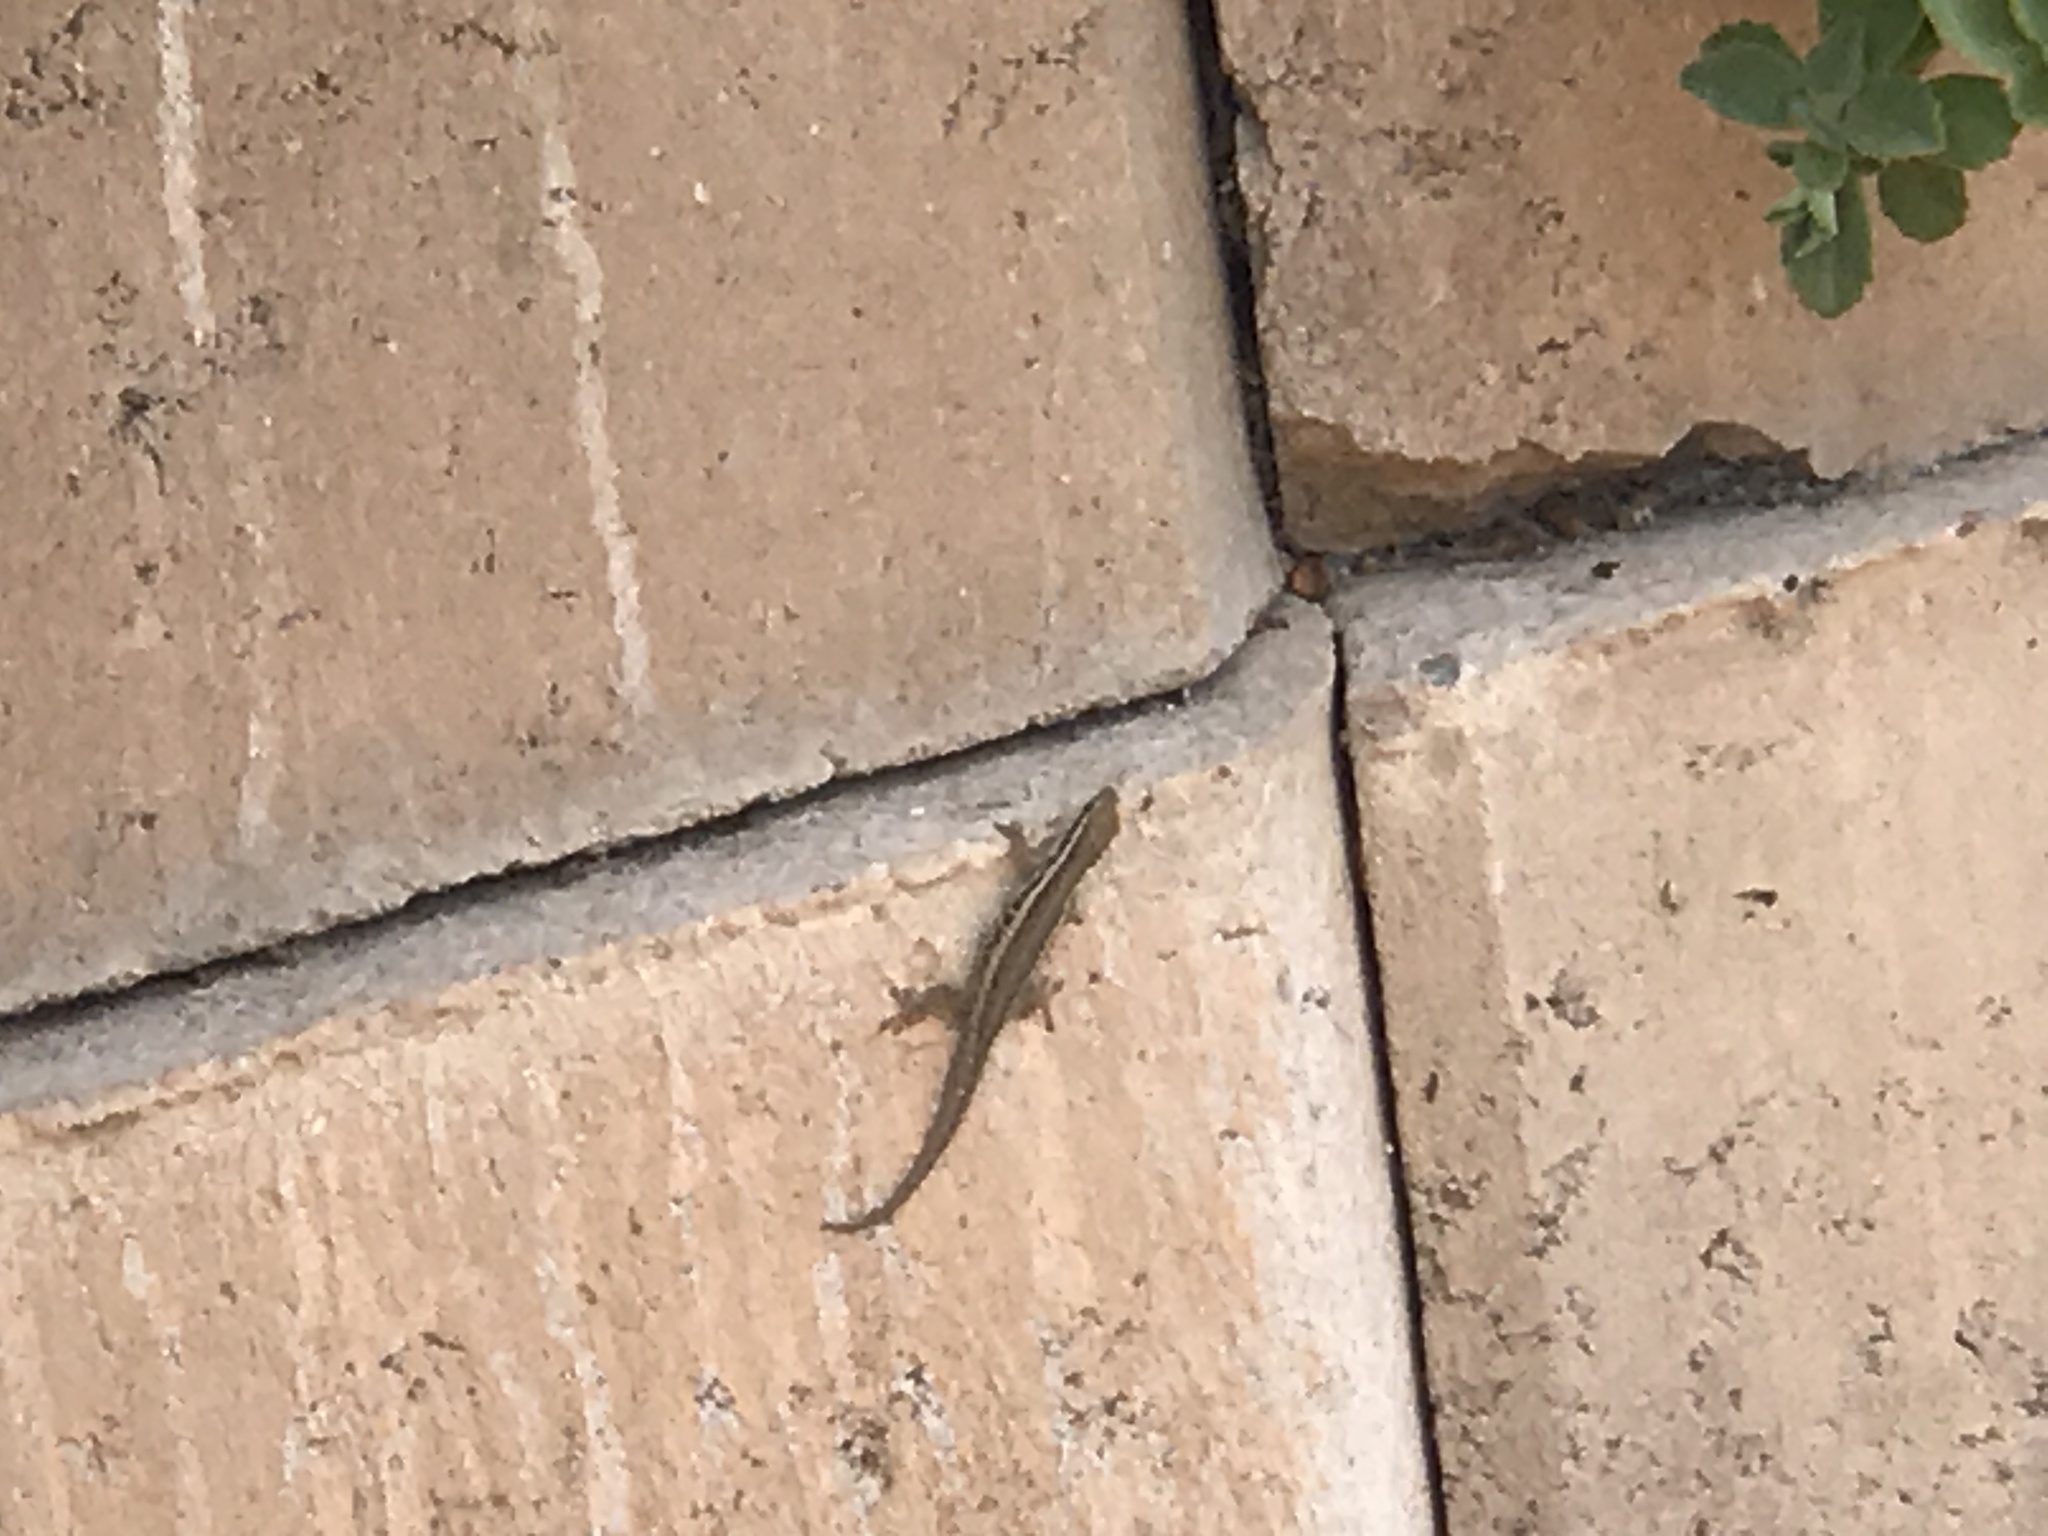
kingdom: Animalia
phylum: Chordata
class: Squamata
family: Gekkonidae
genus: Lygodactylus
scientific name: Lygodactylus capensis
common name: Cape dwarf gecko
